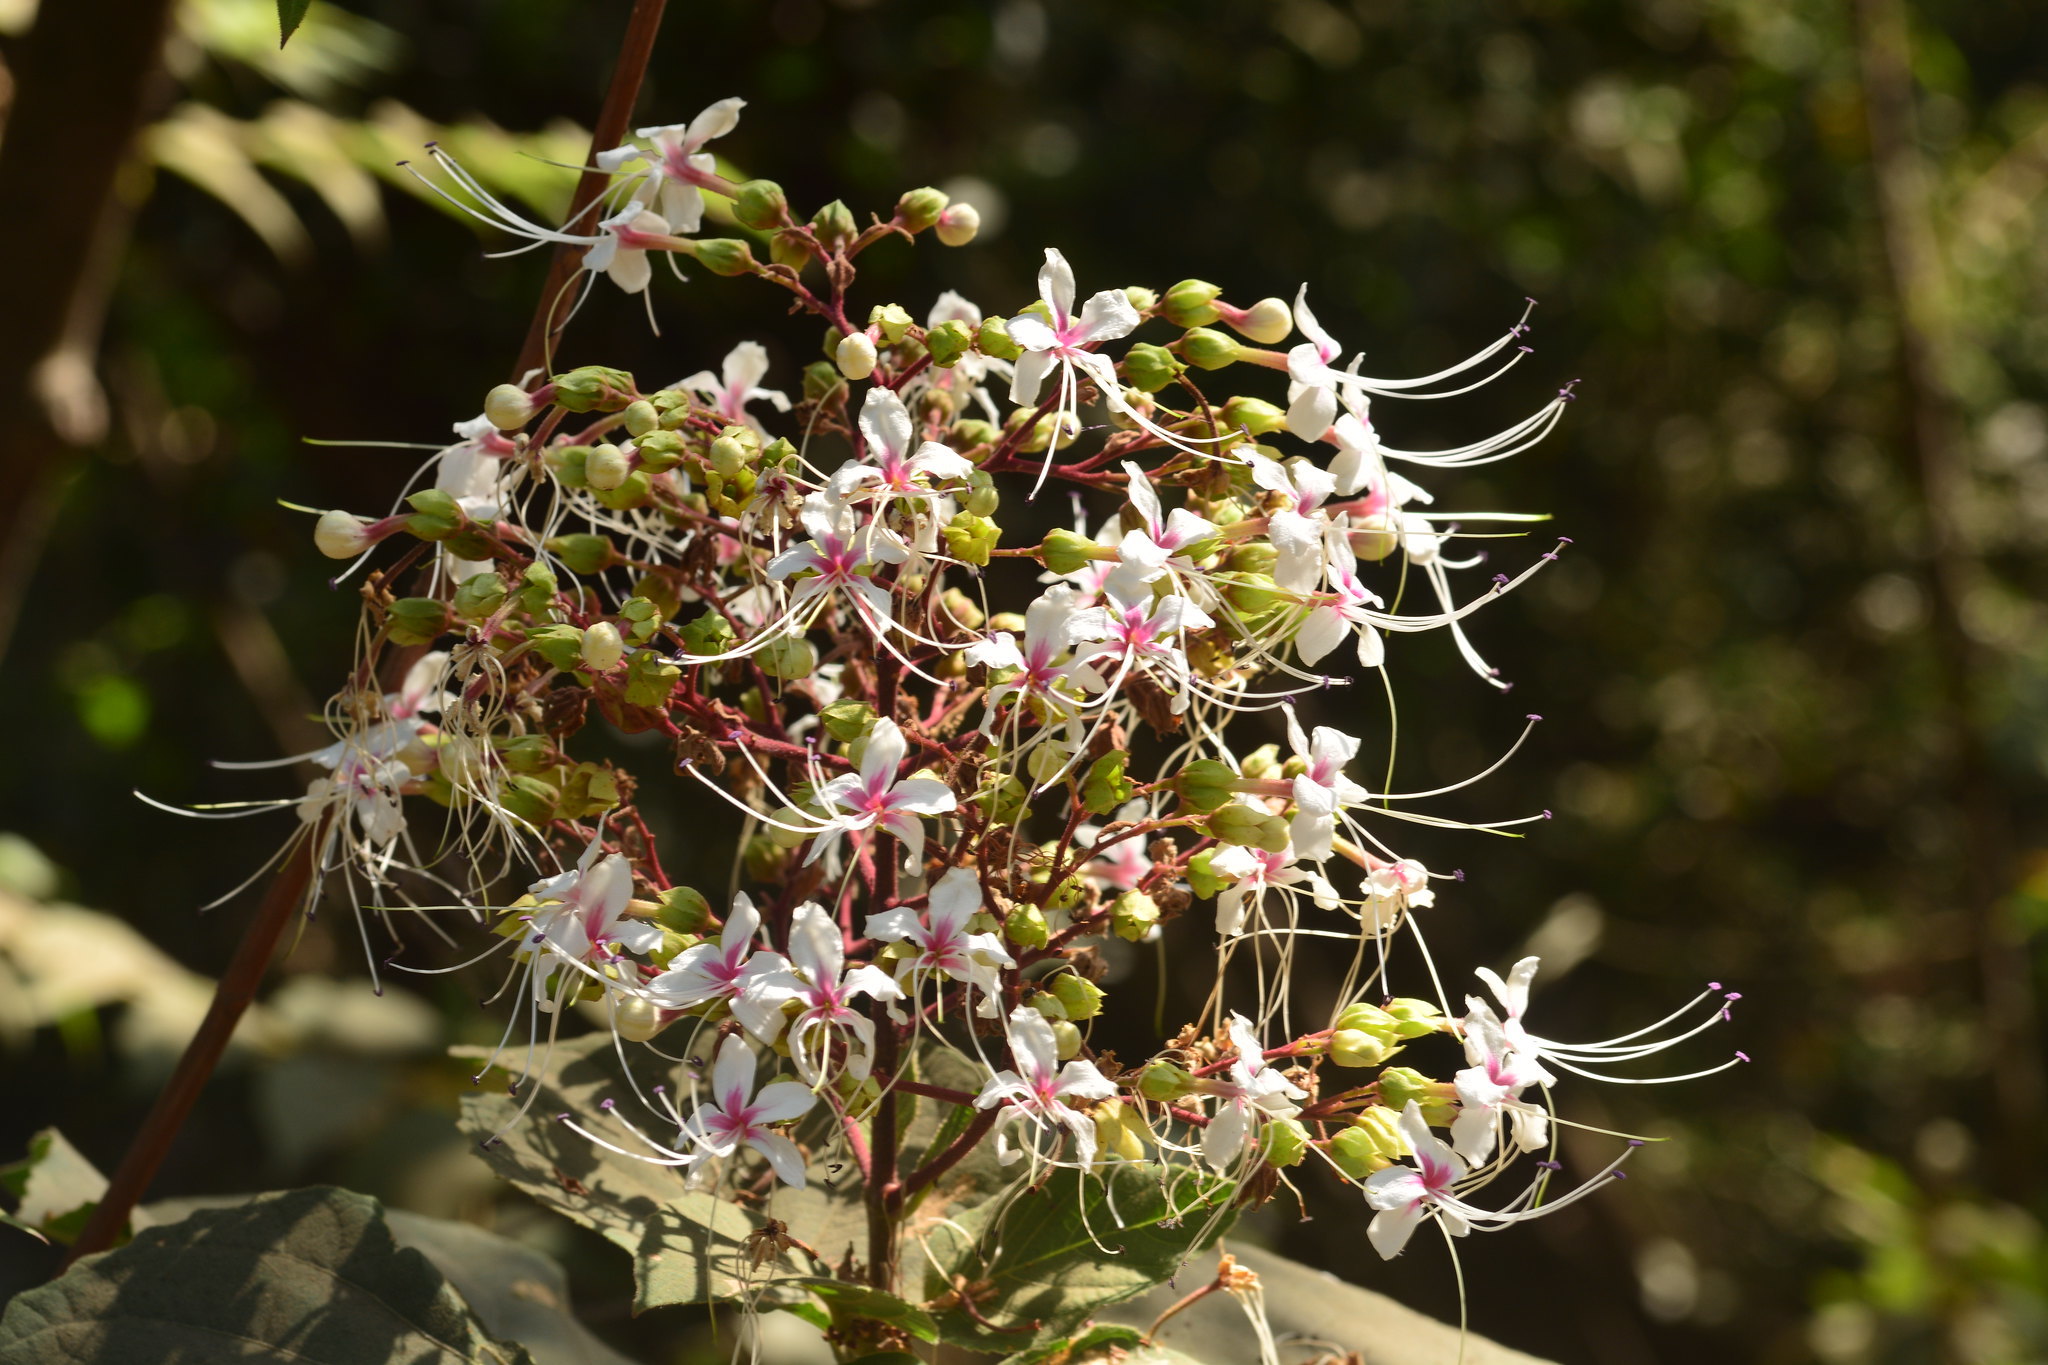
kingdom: Plantae
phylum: Tracheophyta
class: Magnoliopsida
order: Lamiales
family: Lamiaceae
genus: Clerodendrum
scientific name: Clerodendrum infortunatum
